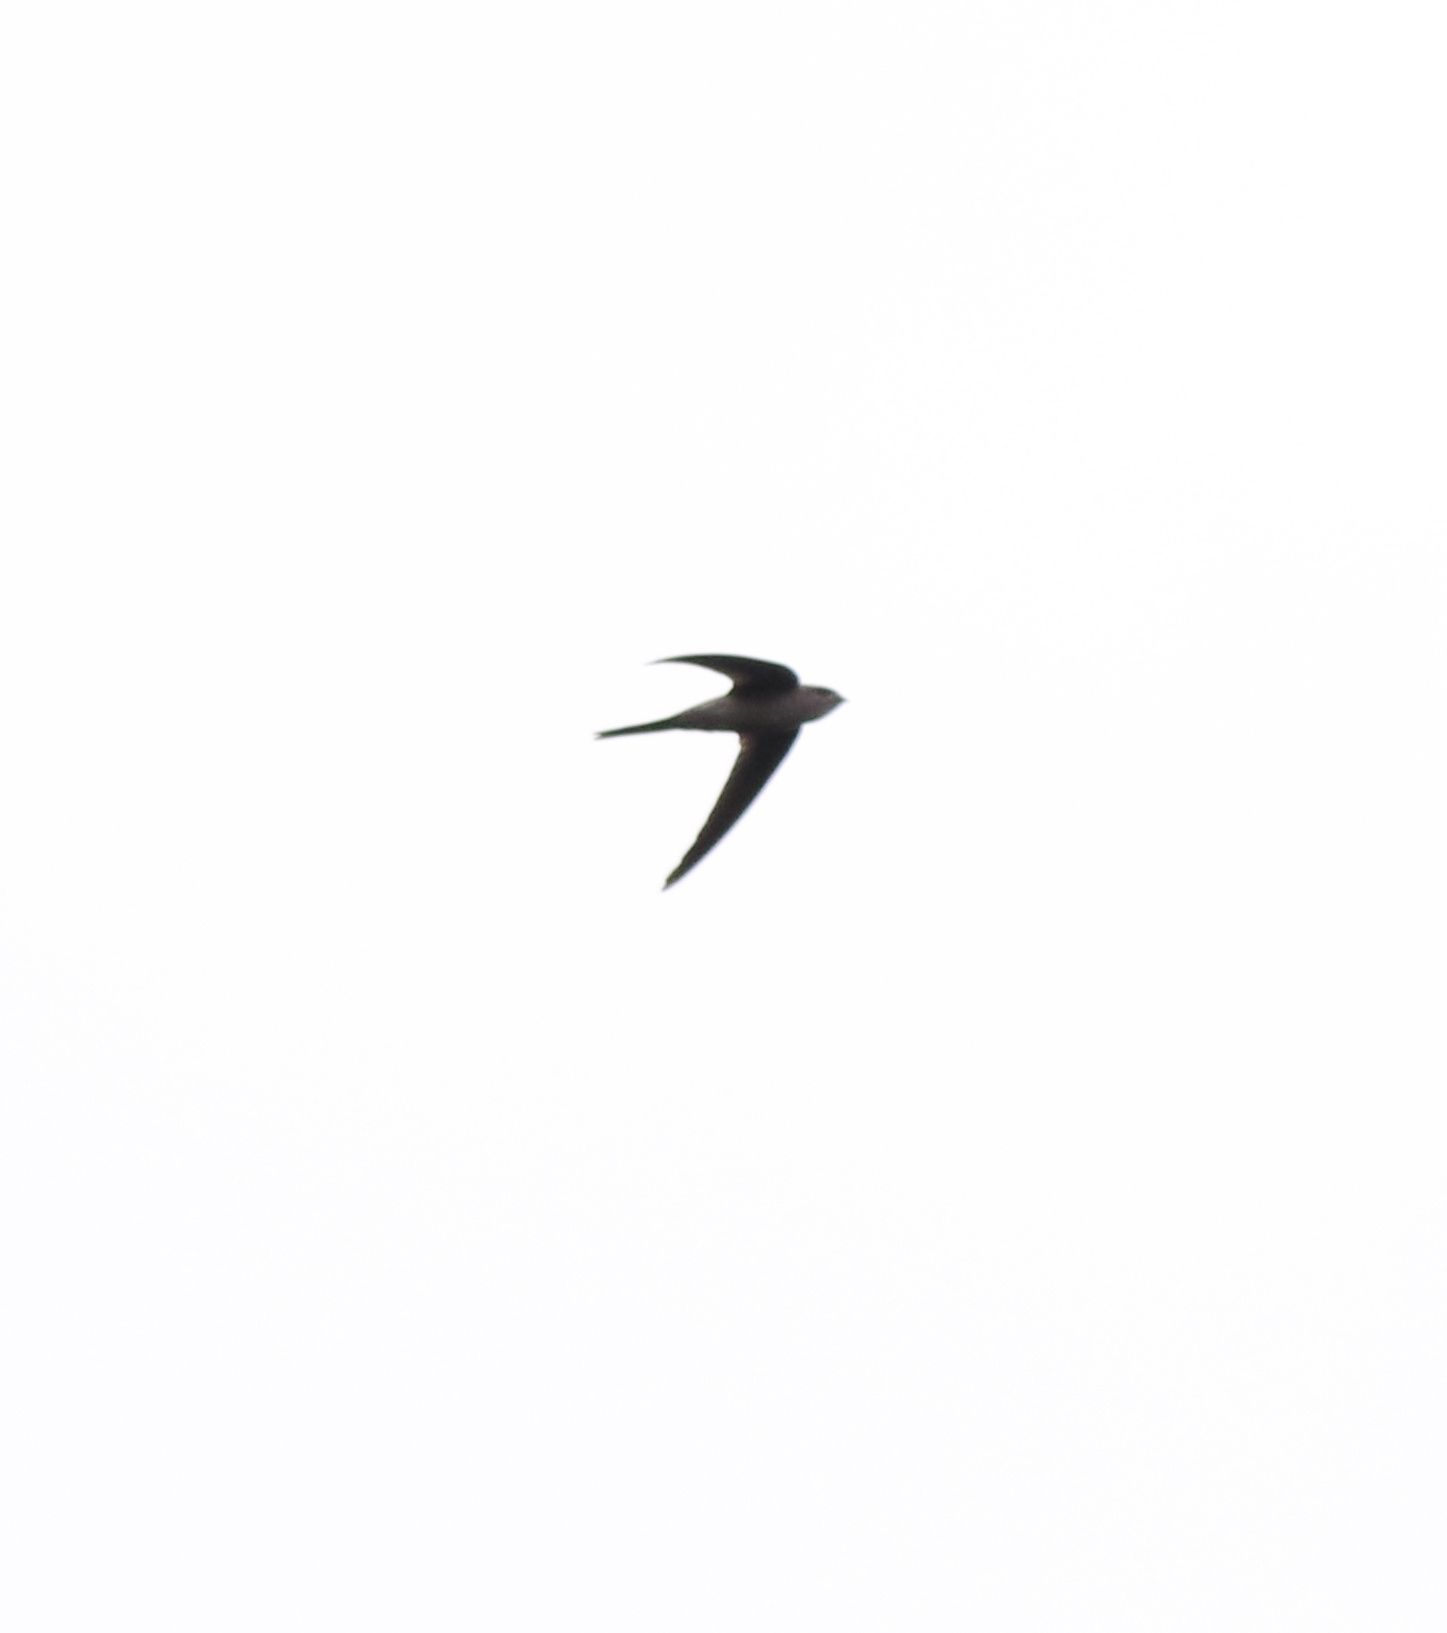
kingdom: Animalia
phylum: Chordata
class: Aves
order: Apodiformes
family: Apodidae
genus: Cypsiurus
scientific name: Cypsiurus balasiensis
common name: Asian palm swift
